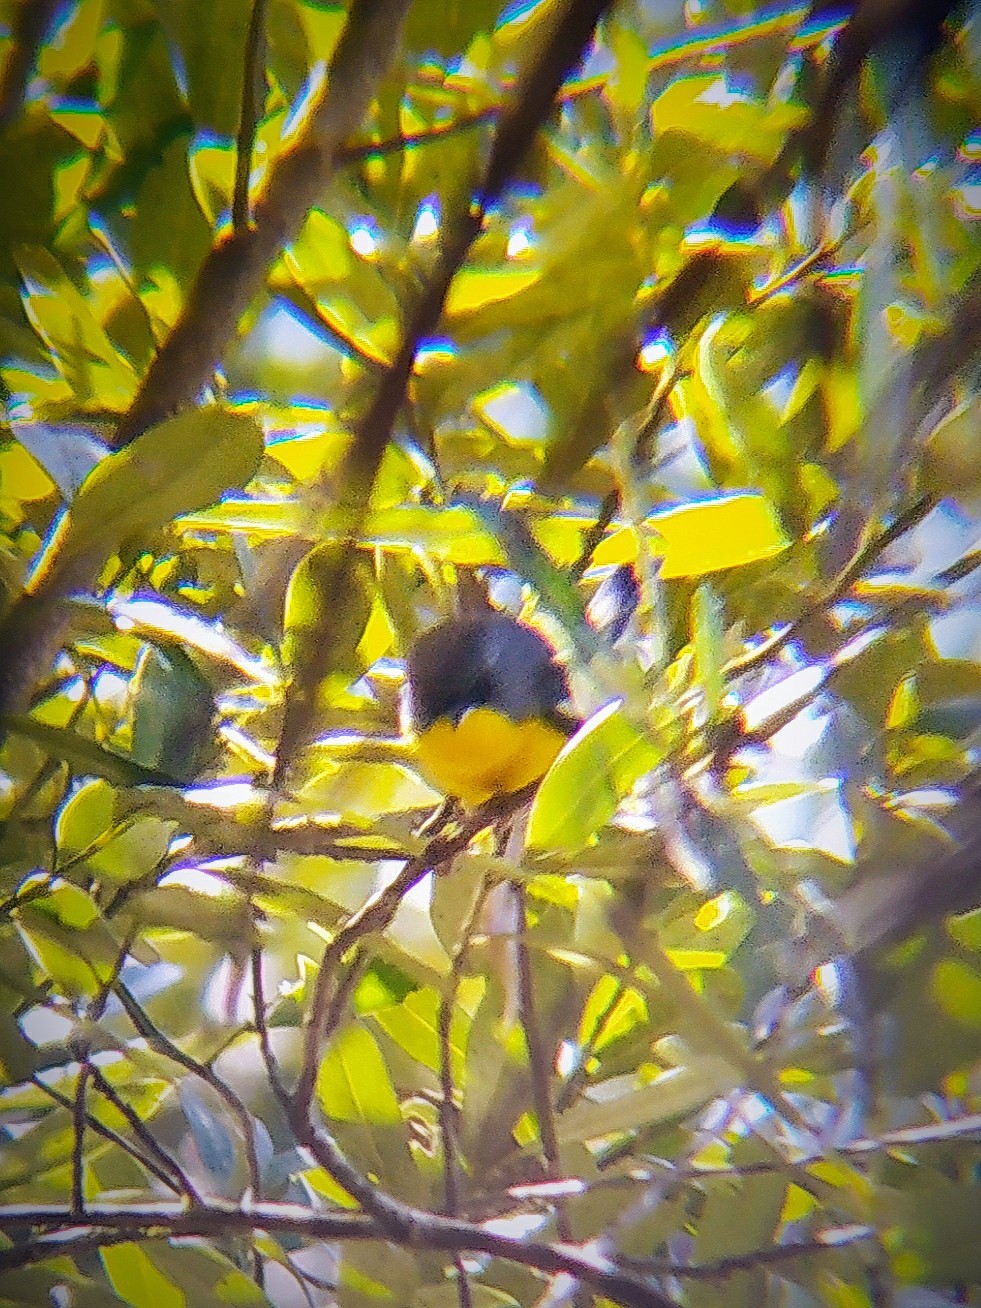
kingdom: Animalia
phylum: Chordata
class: Aves
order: Passeriformes
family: Parulidae
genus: Setophaga
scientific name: Setophaga pitiayumi
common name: Tropical parula
